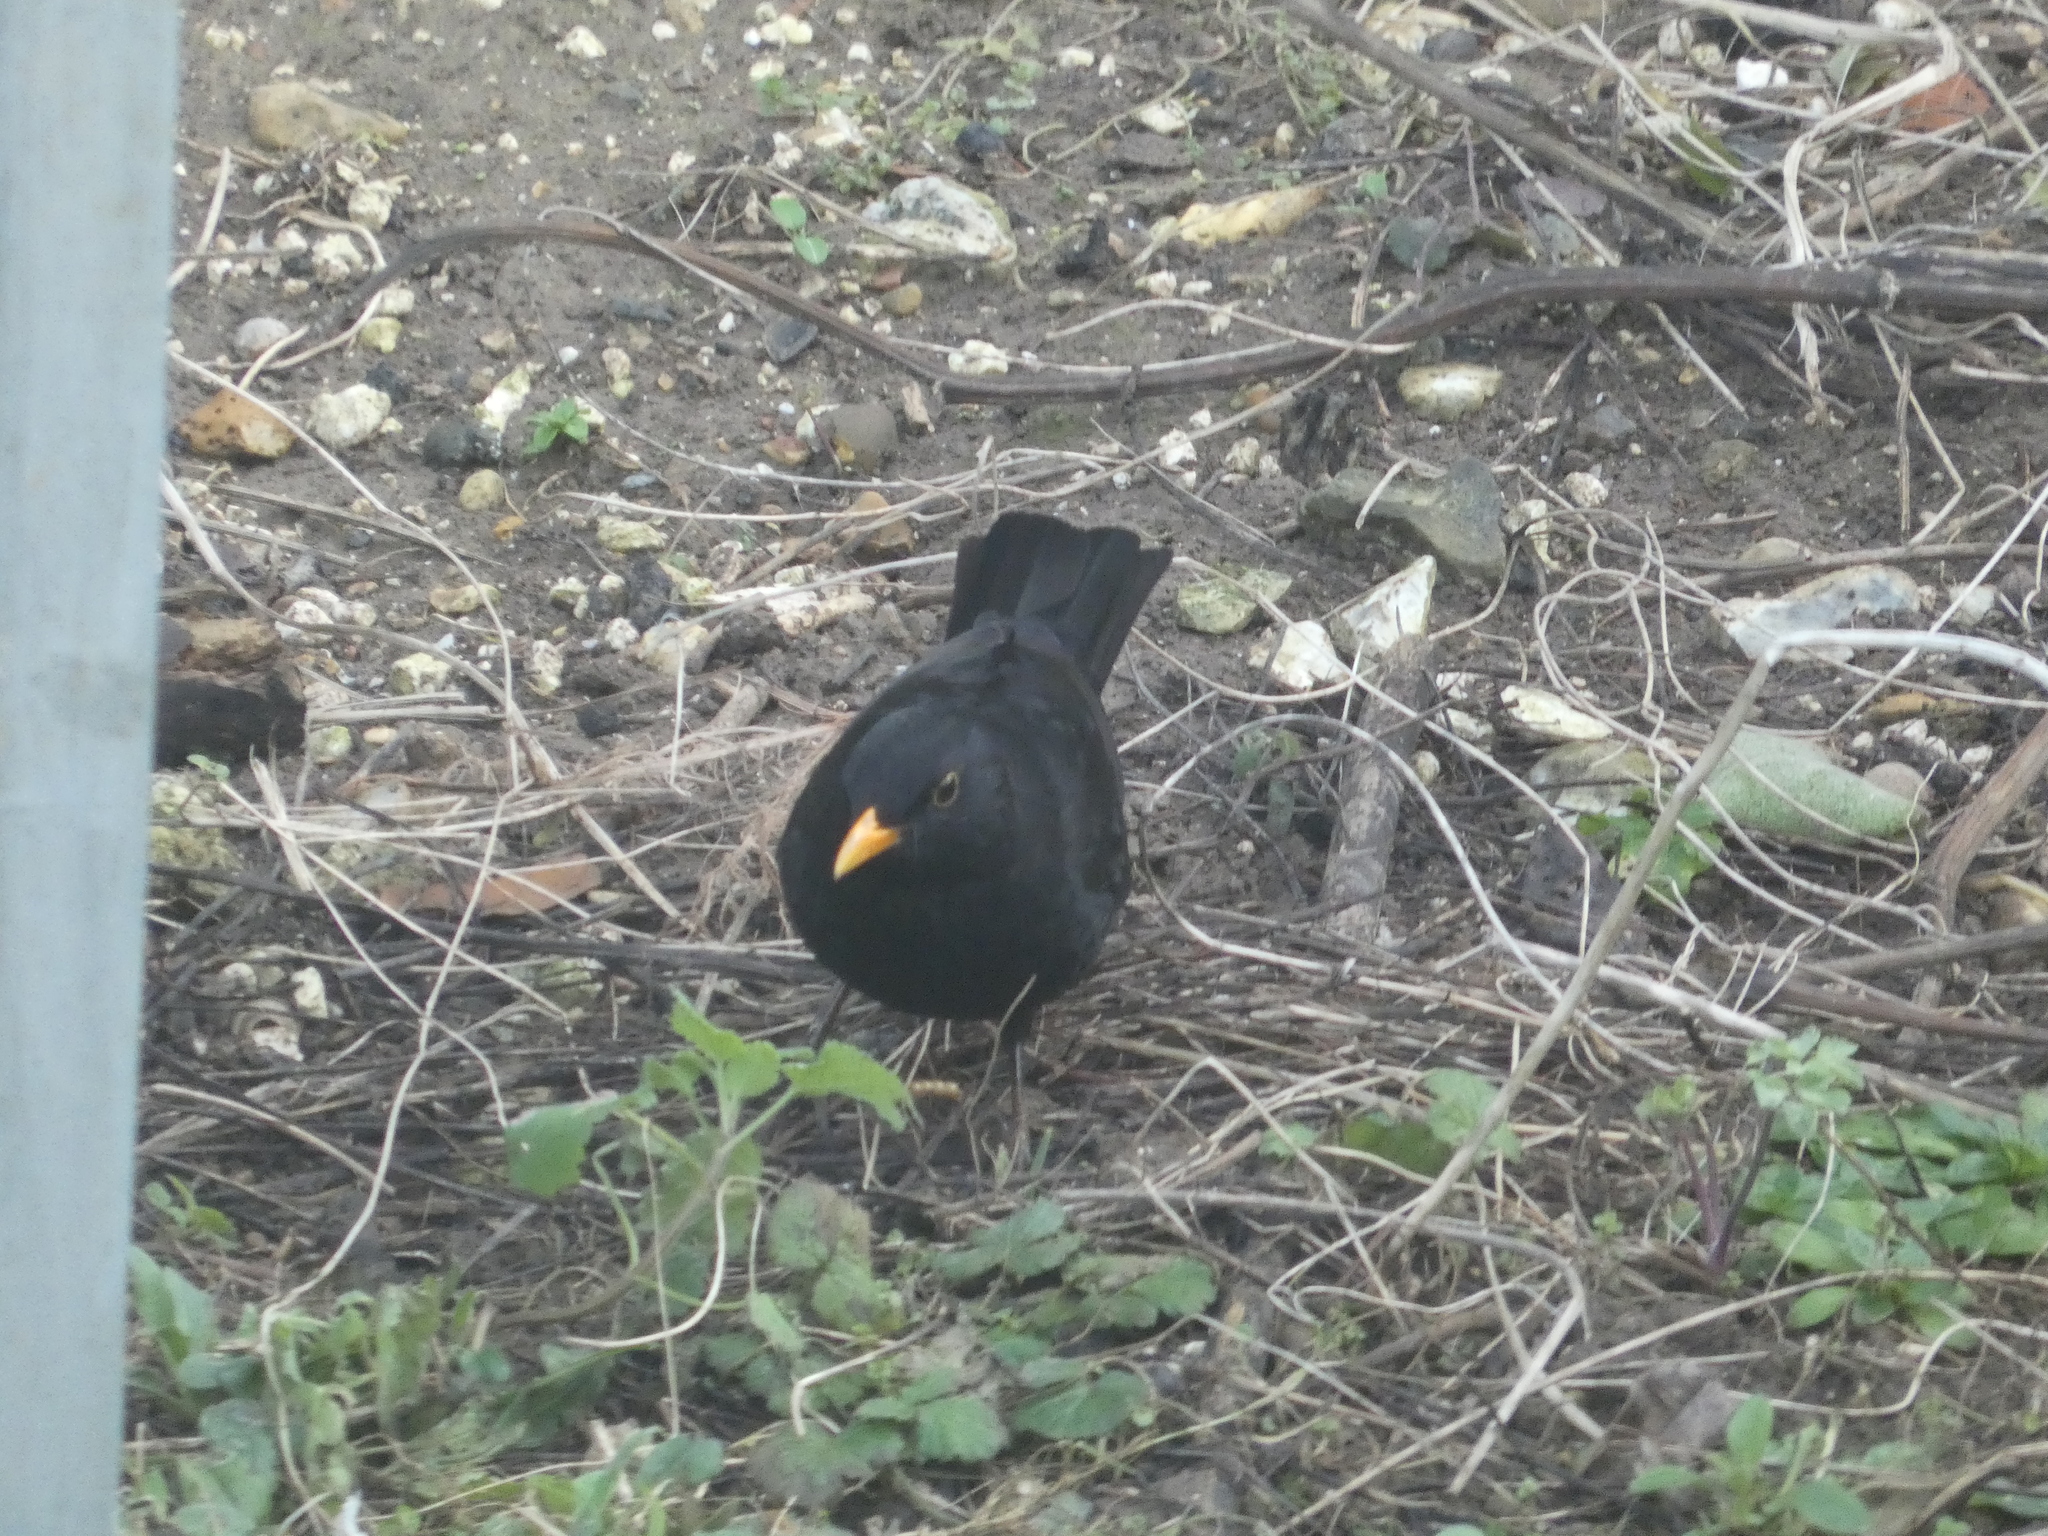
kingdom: Animalia
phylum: Chordata
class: Aves
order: Passeriformes
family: Turdidae
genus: Turdus
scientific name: Turdus merula
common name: Common blackbird
